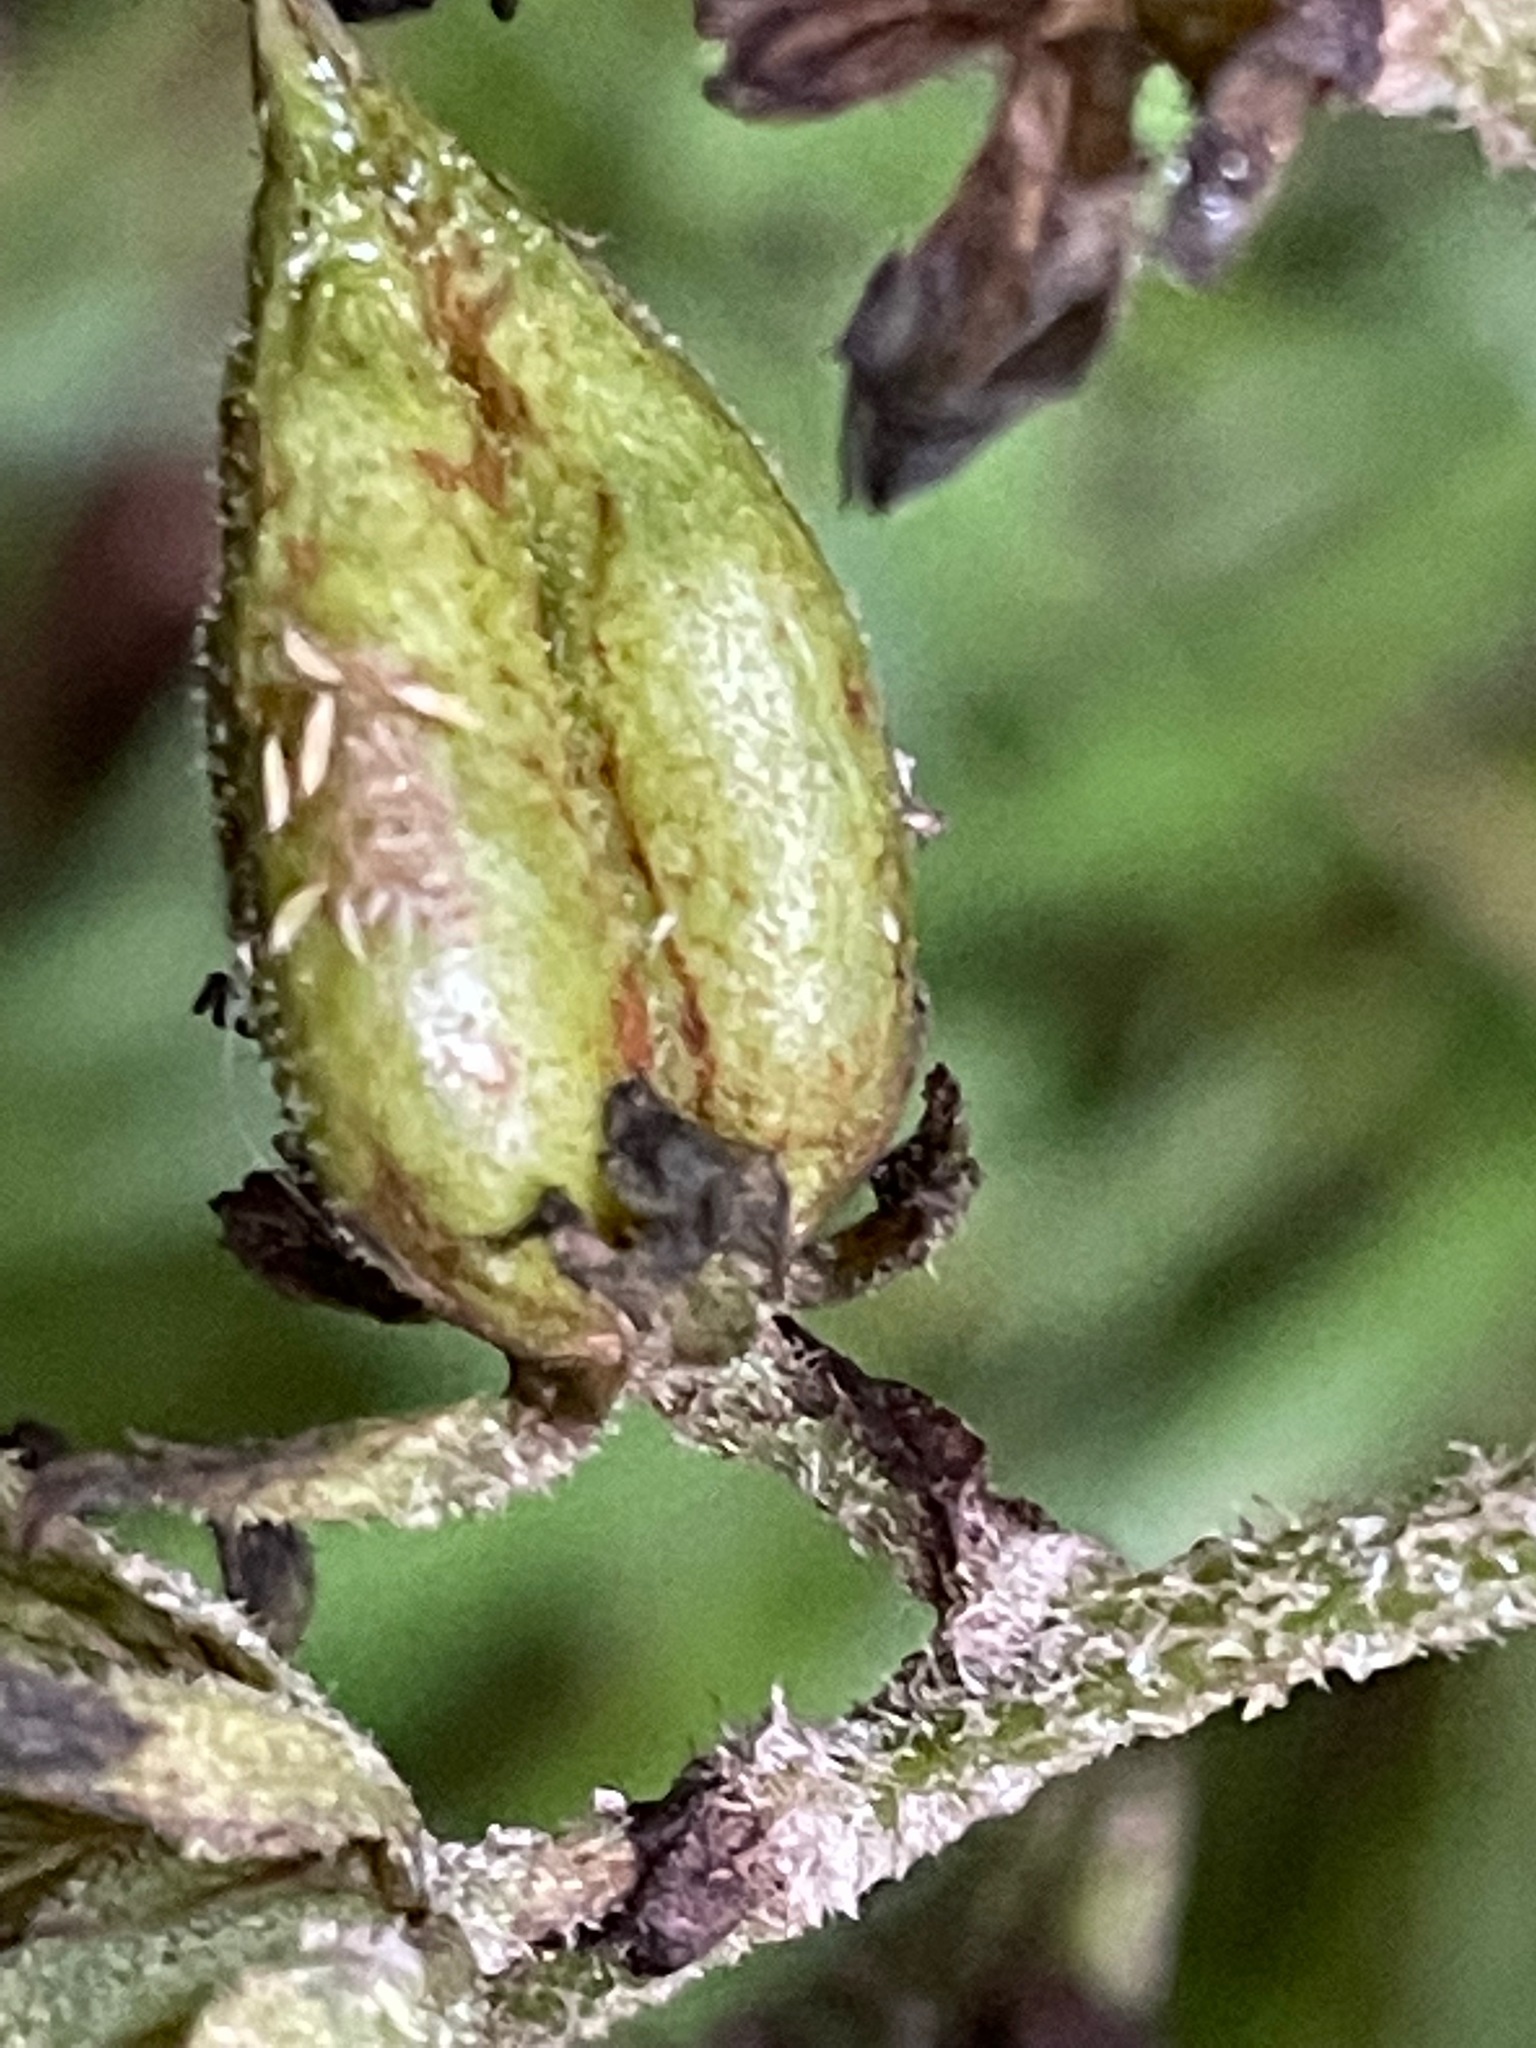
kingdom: Plantae
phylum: Tracheophyta
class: Liliopsida
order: Liliales
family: Melanthiaceae
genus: Veratrum
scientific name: Veratrum viride
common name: American false hellebore
